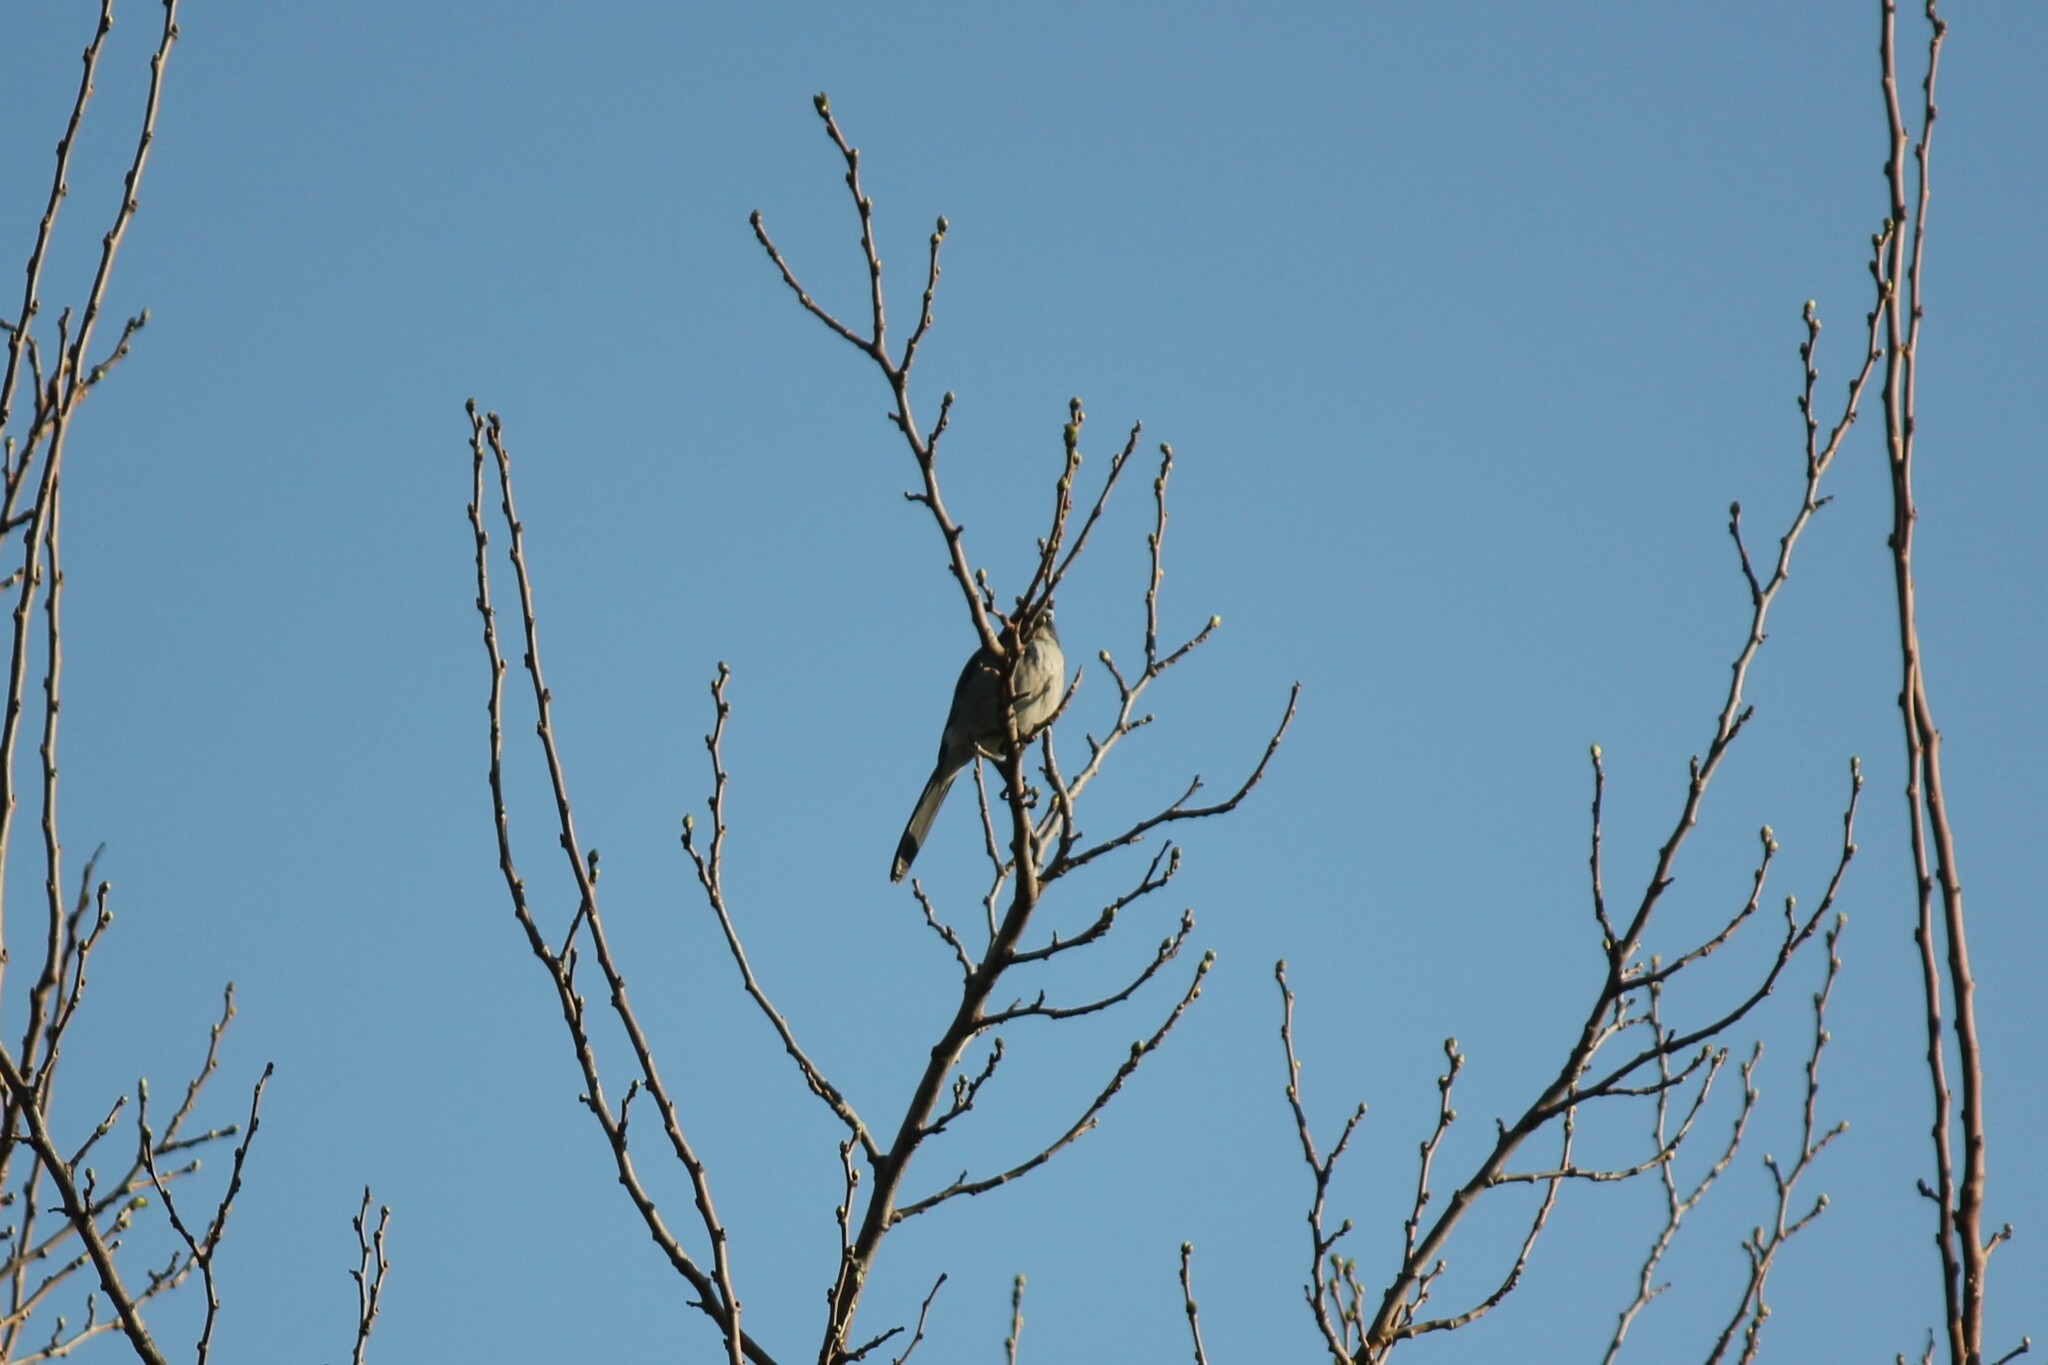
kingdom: Animalia
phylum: Chordata
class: Aves
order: Passeriformes
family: Corvidae
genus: Aphelocoma
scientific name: Aphelocoma californica
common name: California scrub-jay
